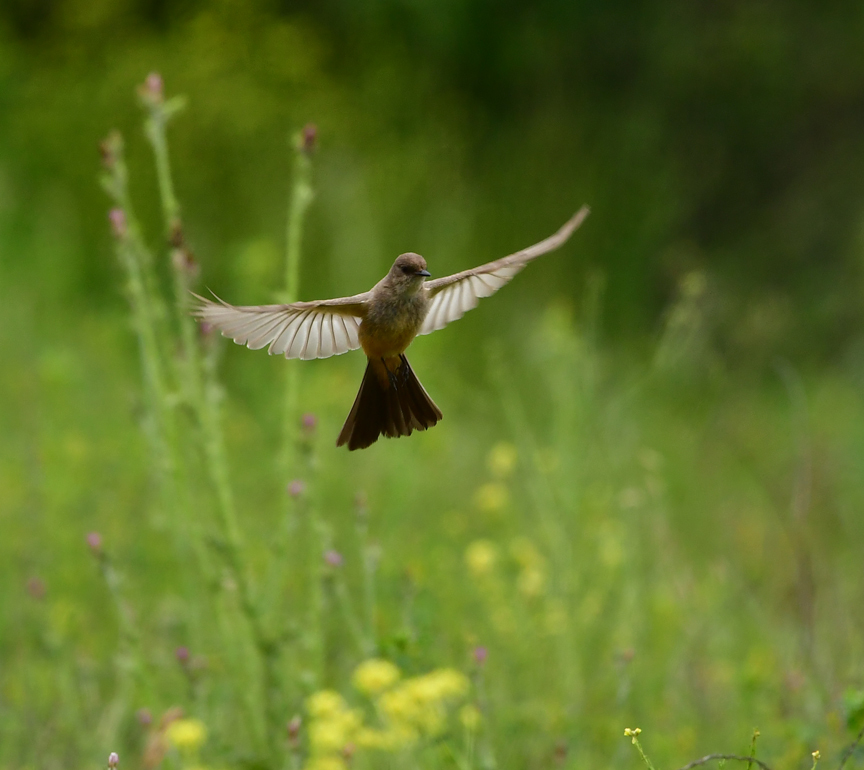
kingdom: Animalia
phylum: Chordata
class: Aves
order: Passeriformes
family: Tyrannidae
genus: Sayornis
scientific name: Sayornis saya
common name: Say's phoebe
